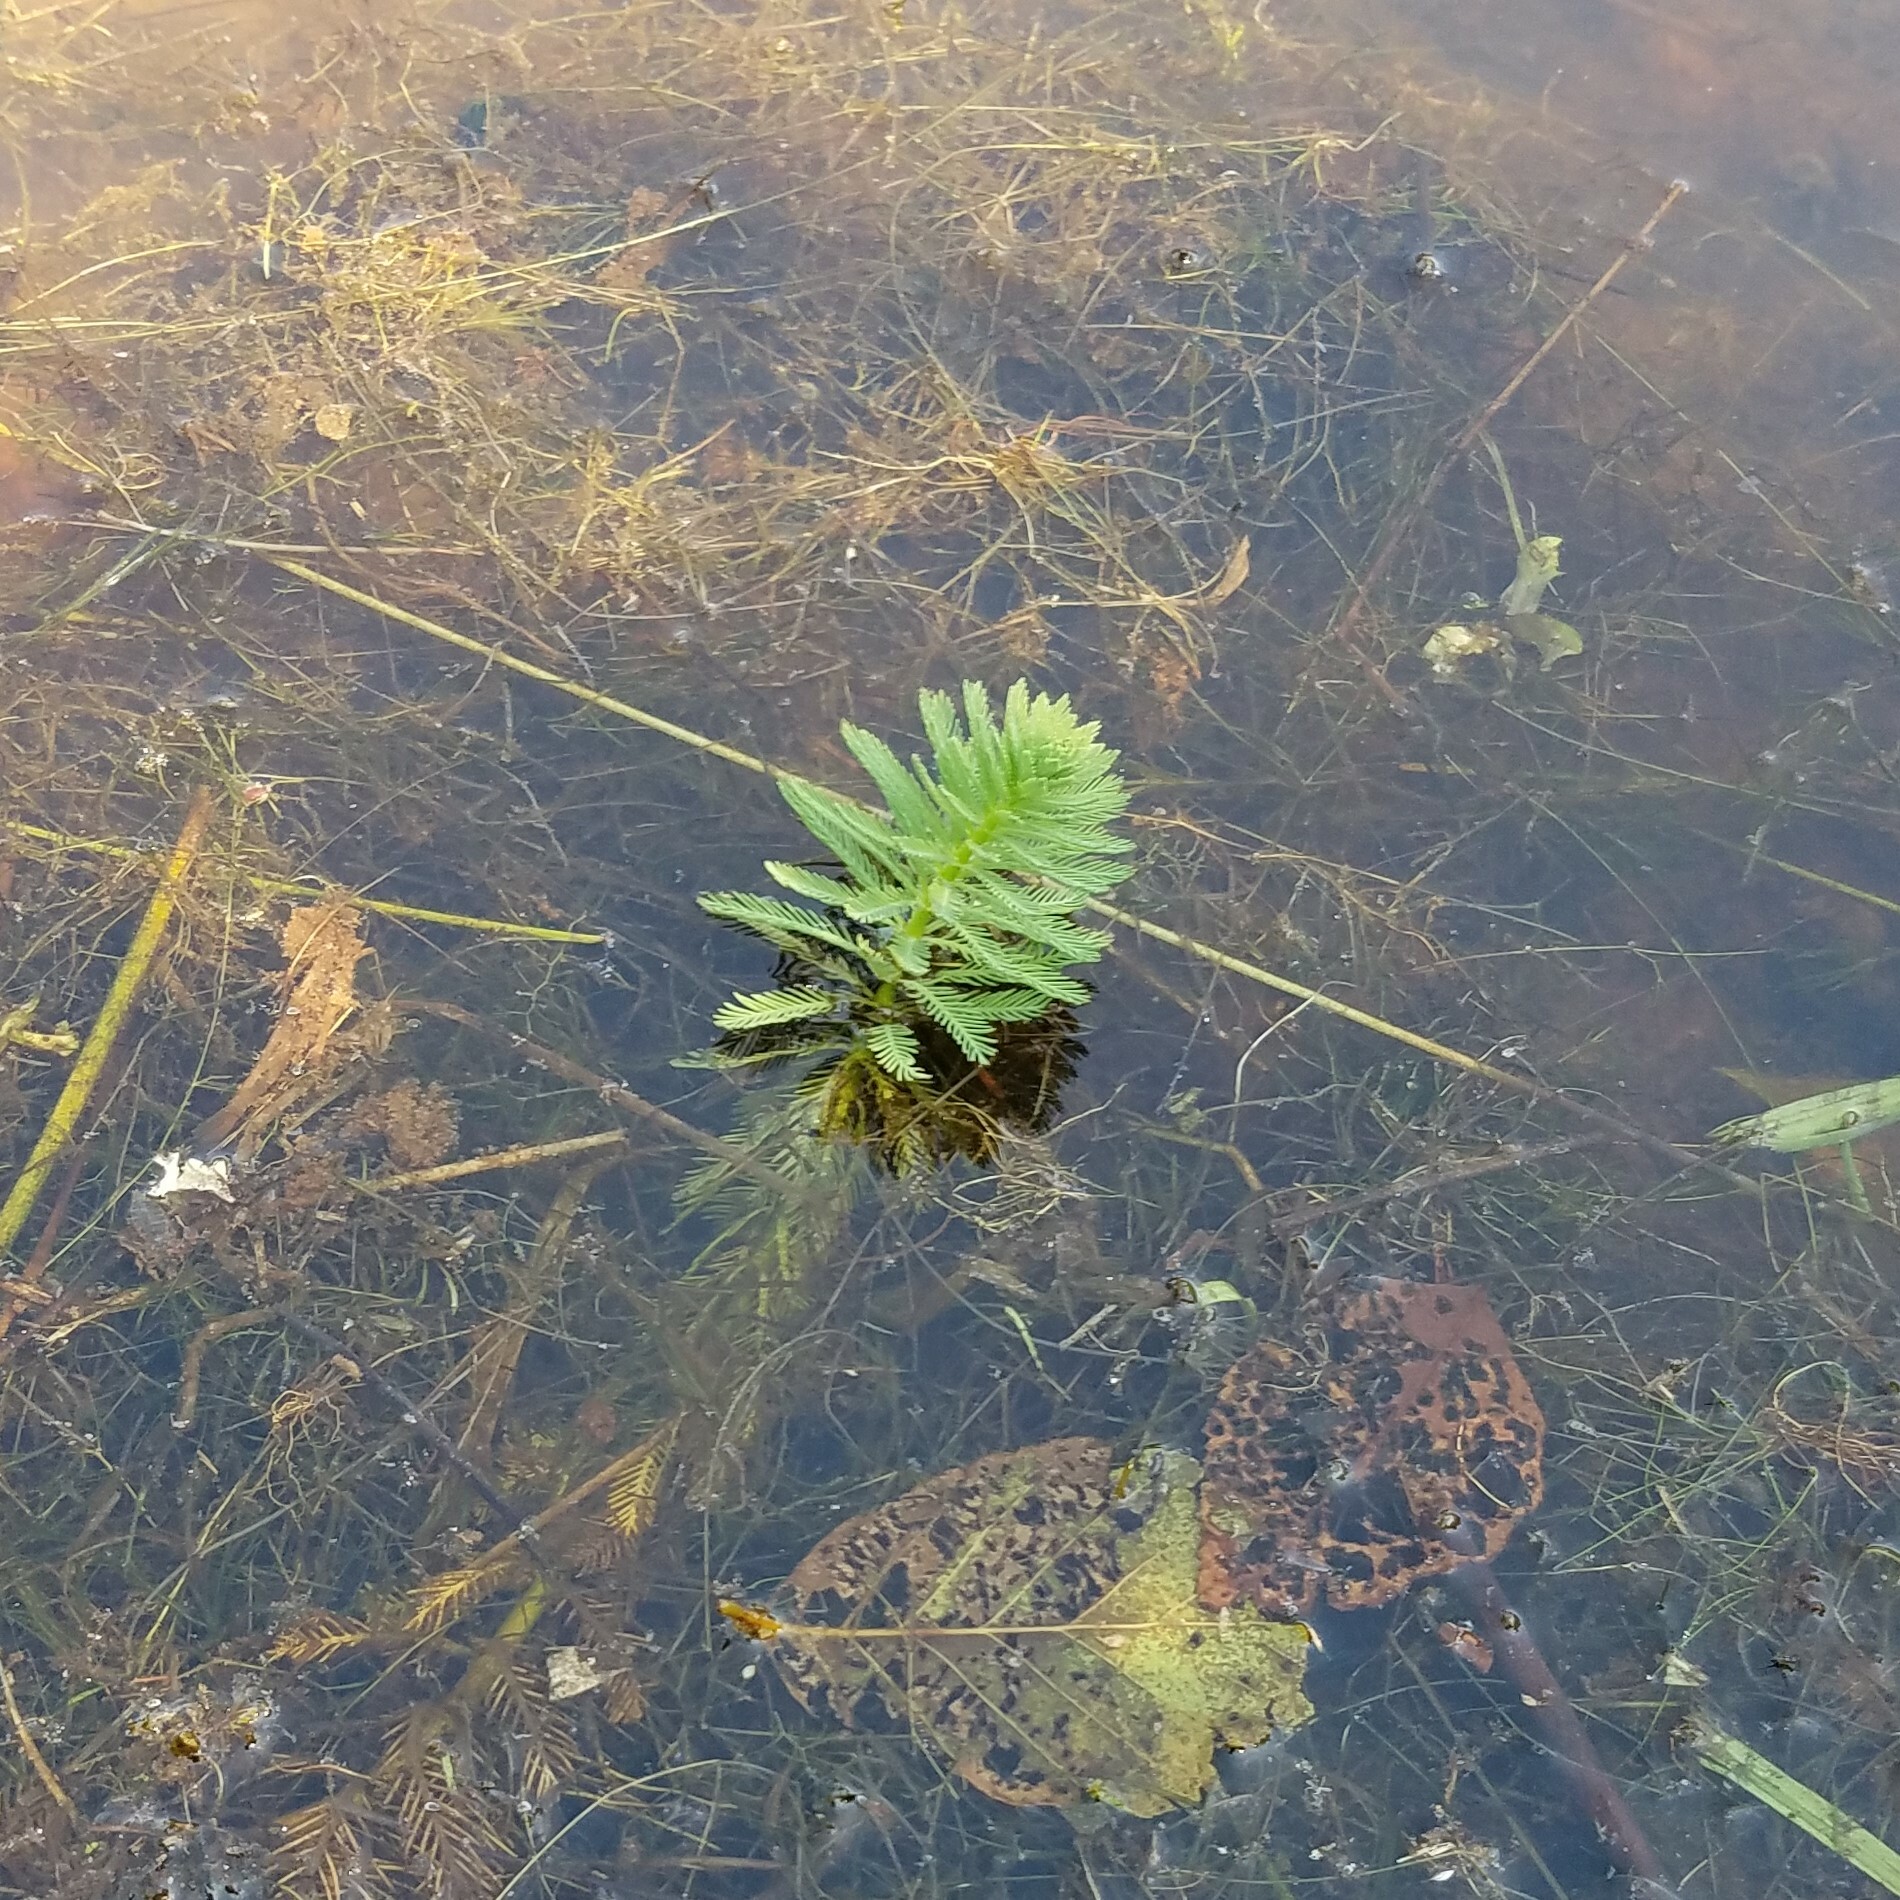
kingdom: Plantae
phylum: Tracheophyta
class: Magnoliopsida
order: Saxifragales
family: Haloragaceae
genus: Myriophyllum
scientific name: Myriophyllum aquaticum
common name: Parrot's feather
